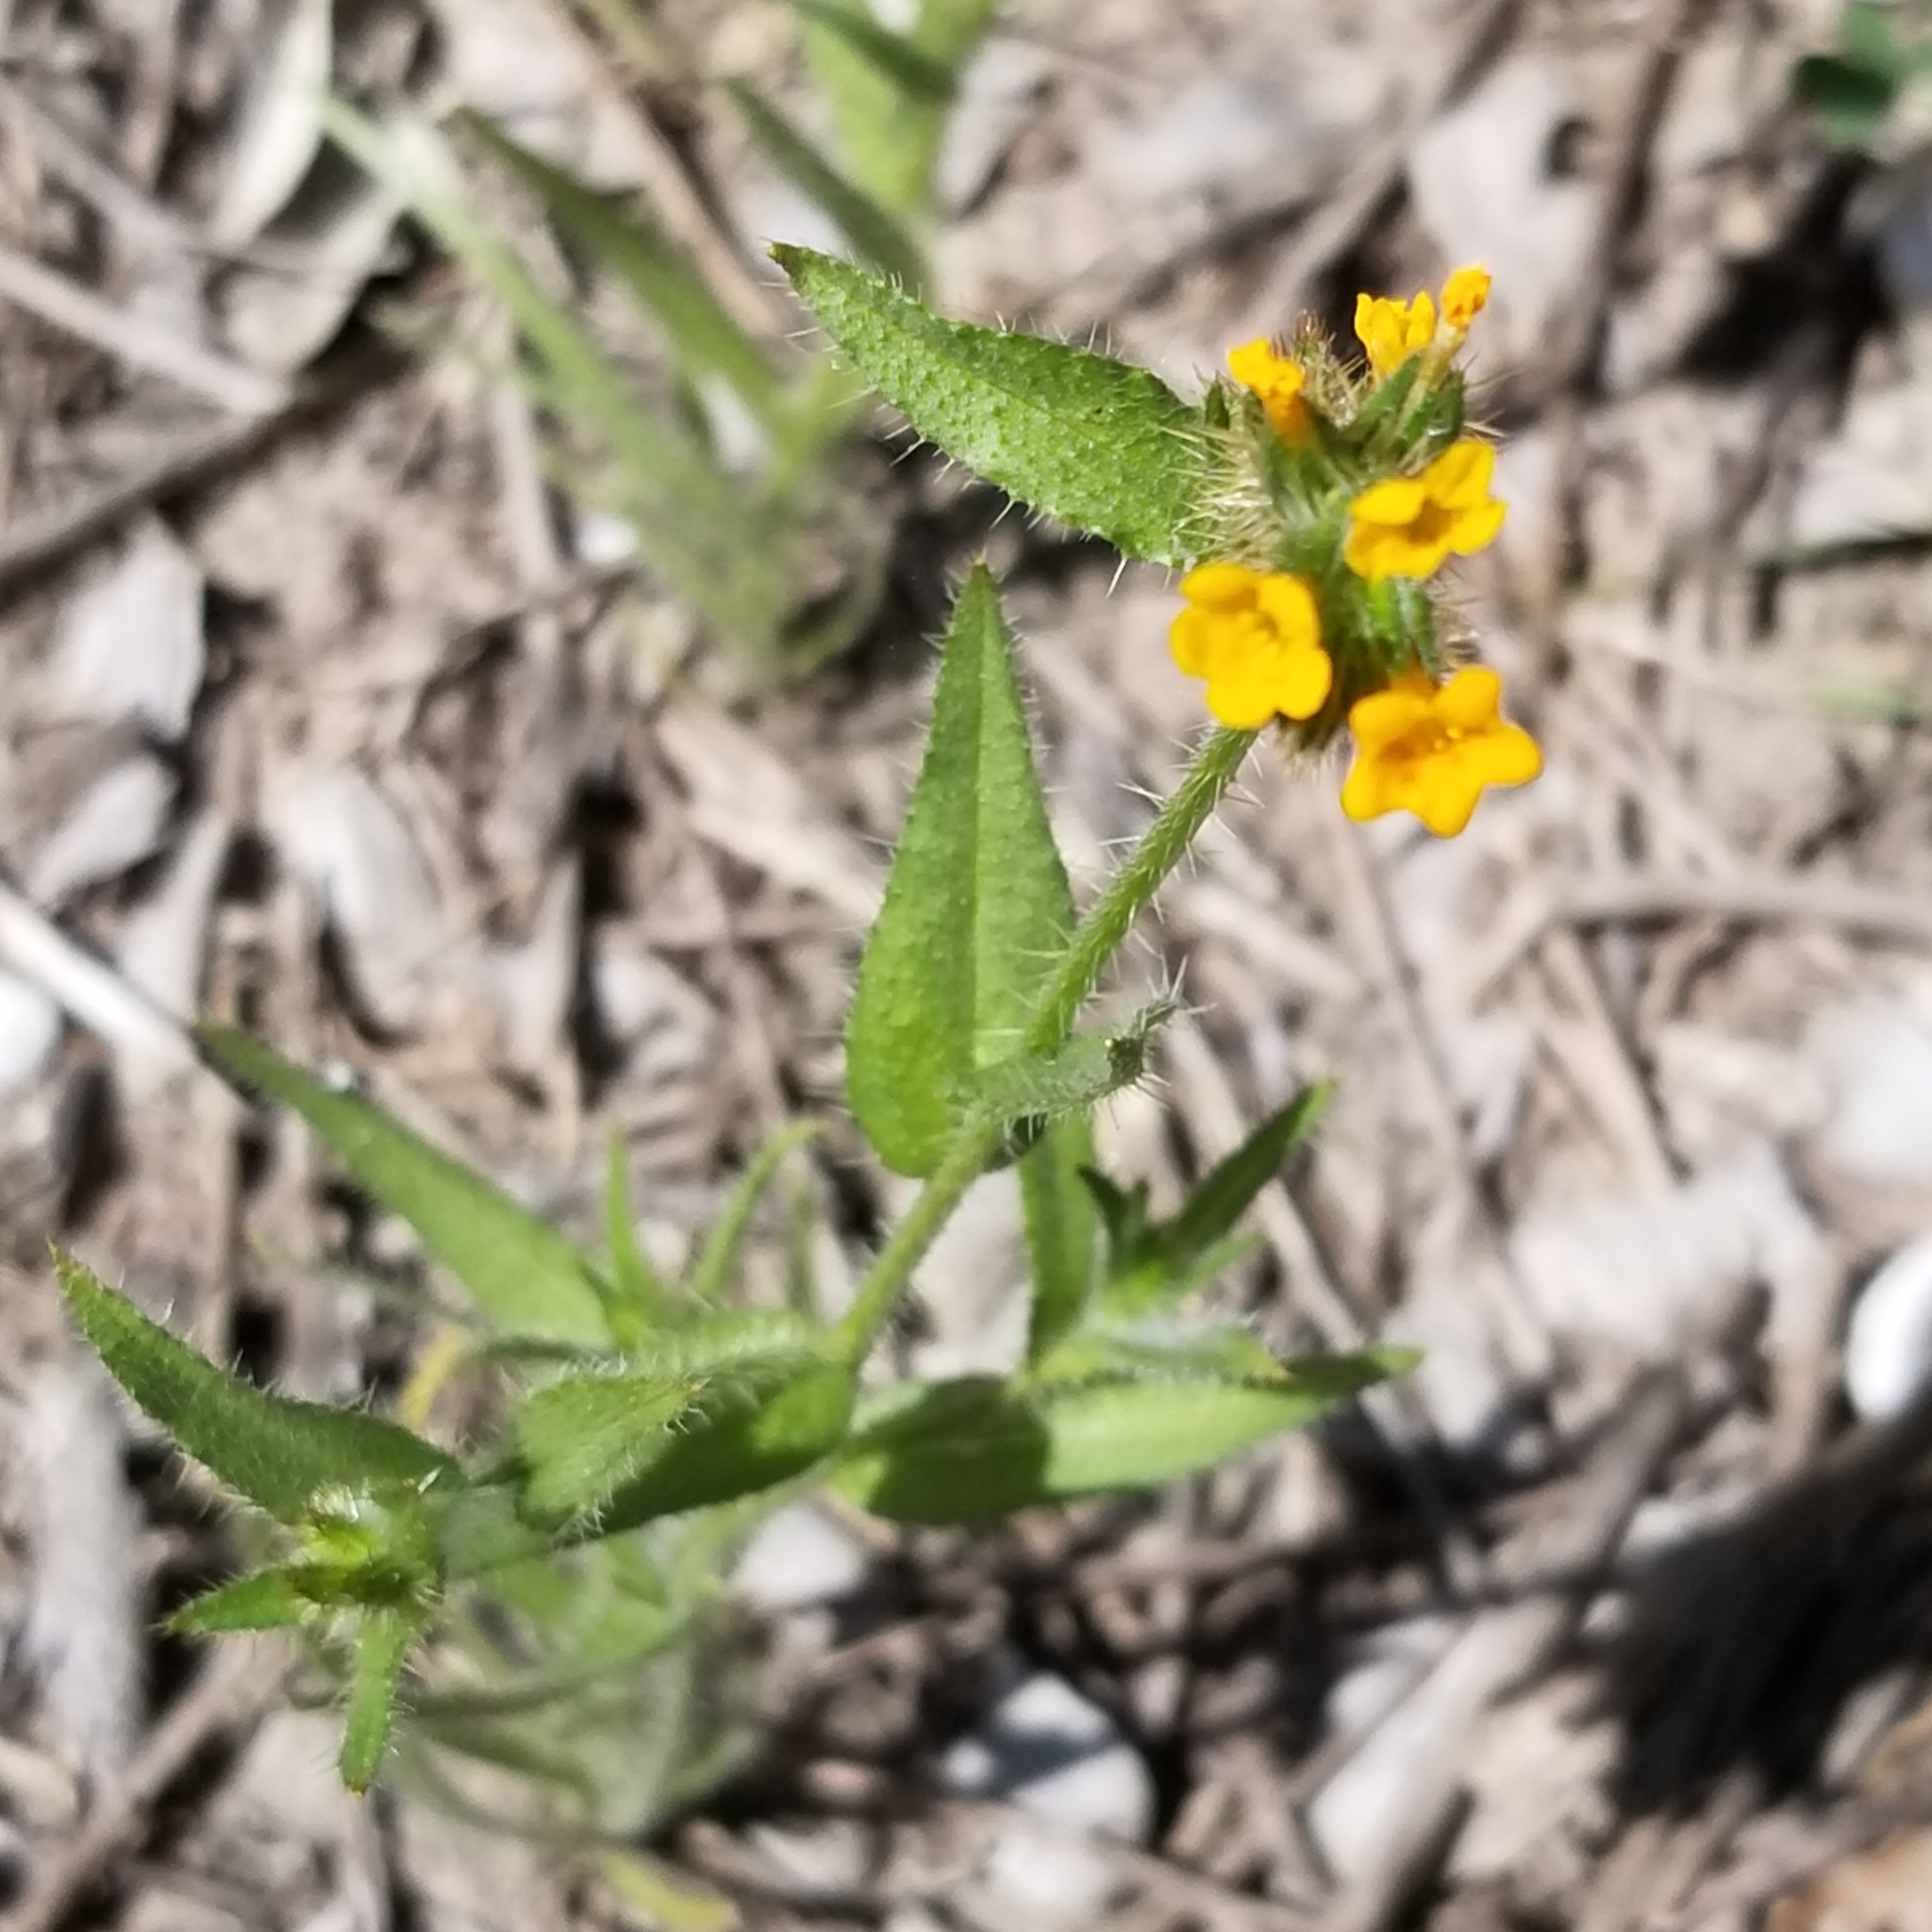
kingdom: Plantae
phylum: Tracheophyta
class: Magnoliopsida
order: Boraginales
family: Boraginaceae
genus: Amsinckia
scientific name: Amsinckia menziesii
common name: Menzies' fiddleneck
